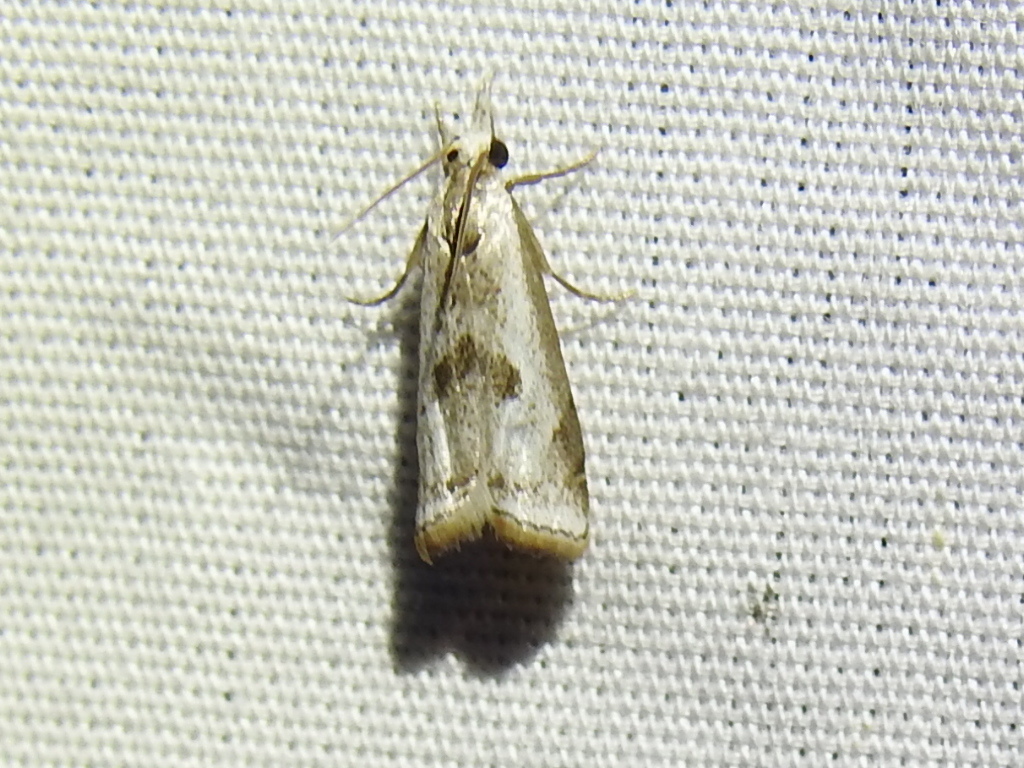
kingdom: Animalia
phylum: Arthropoda
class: Insecta
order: Lepidoptera
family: Crambidae
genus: Microcrambus
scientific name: Microcrambus croesus
